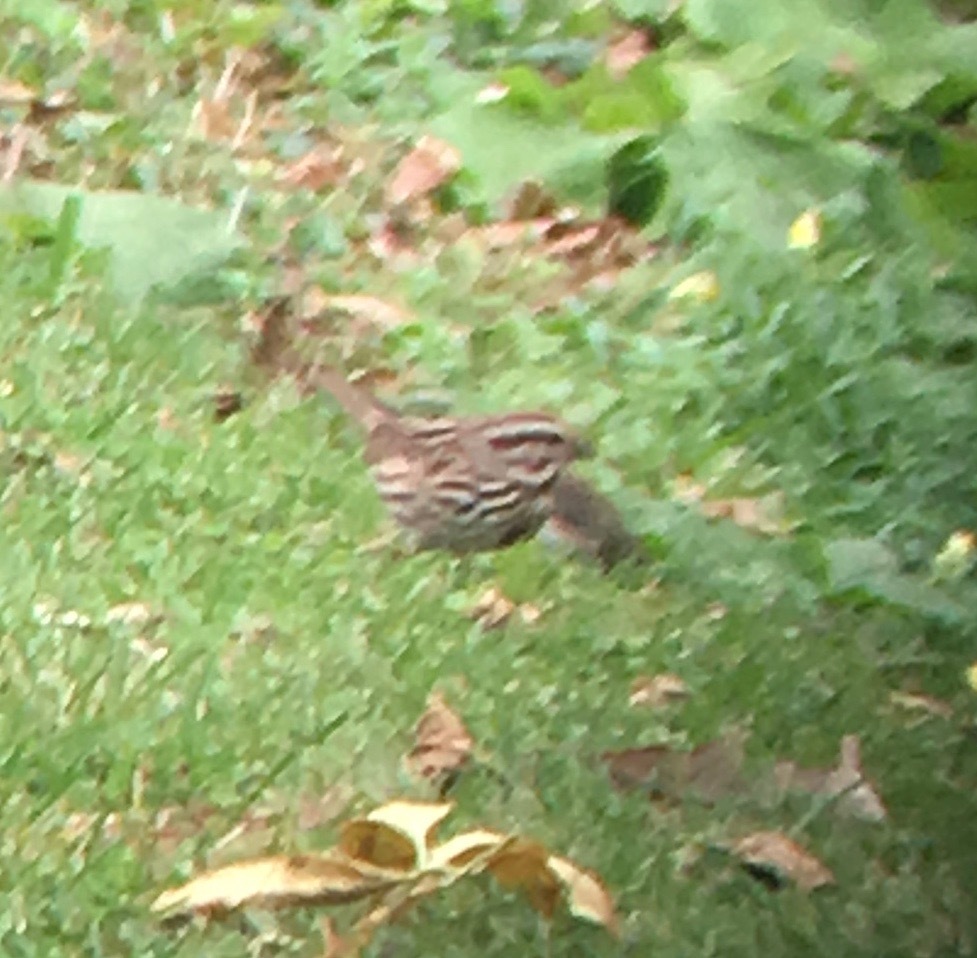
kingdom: Animalia
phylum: Chordata
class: Aves
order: Passeriformes
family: Passerellidae
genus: Melospiza
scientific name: Melospiza melodia
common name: Song sparrow
